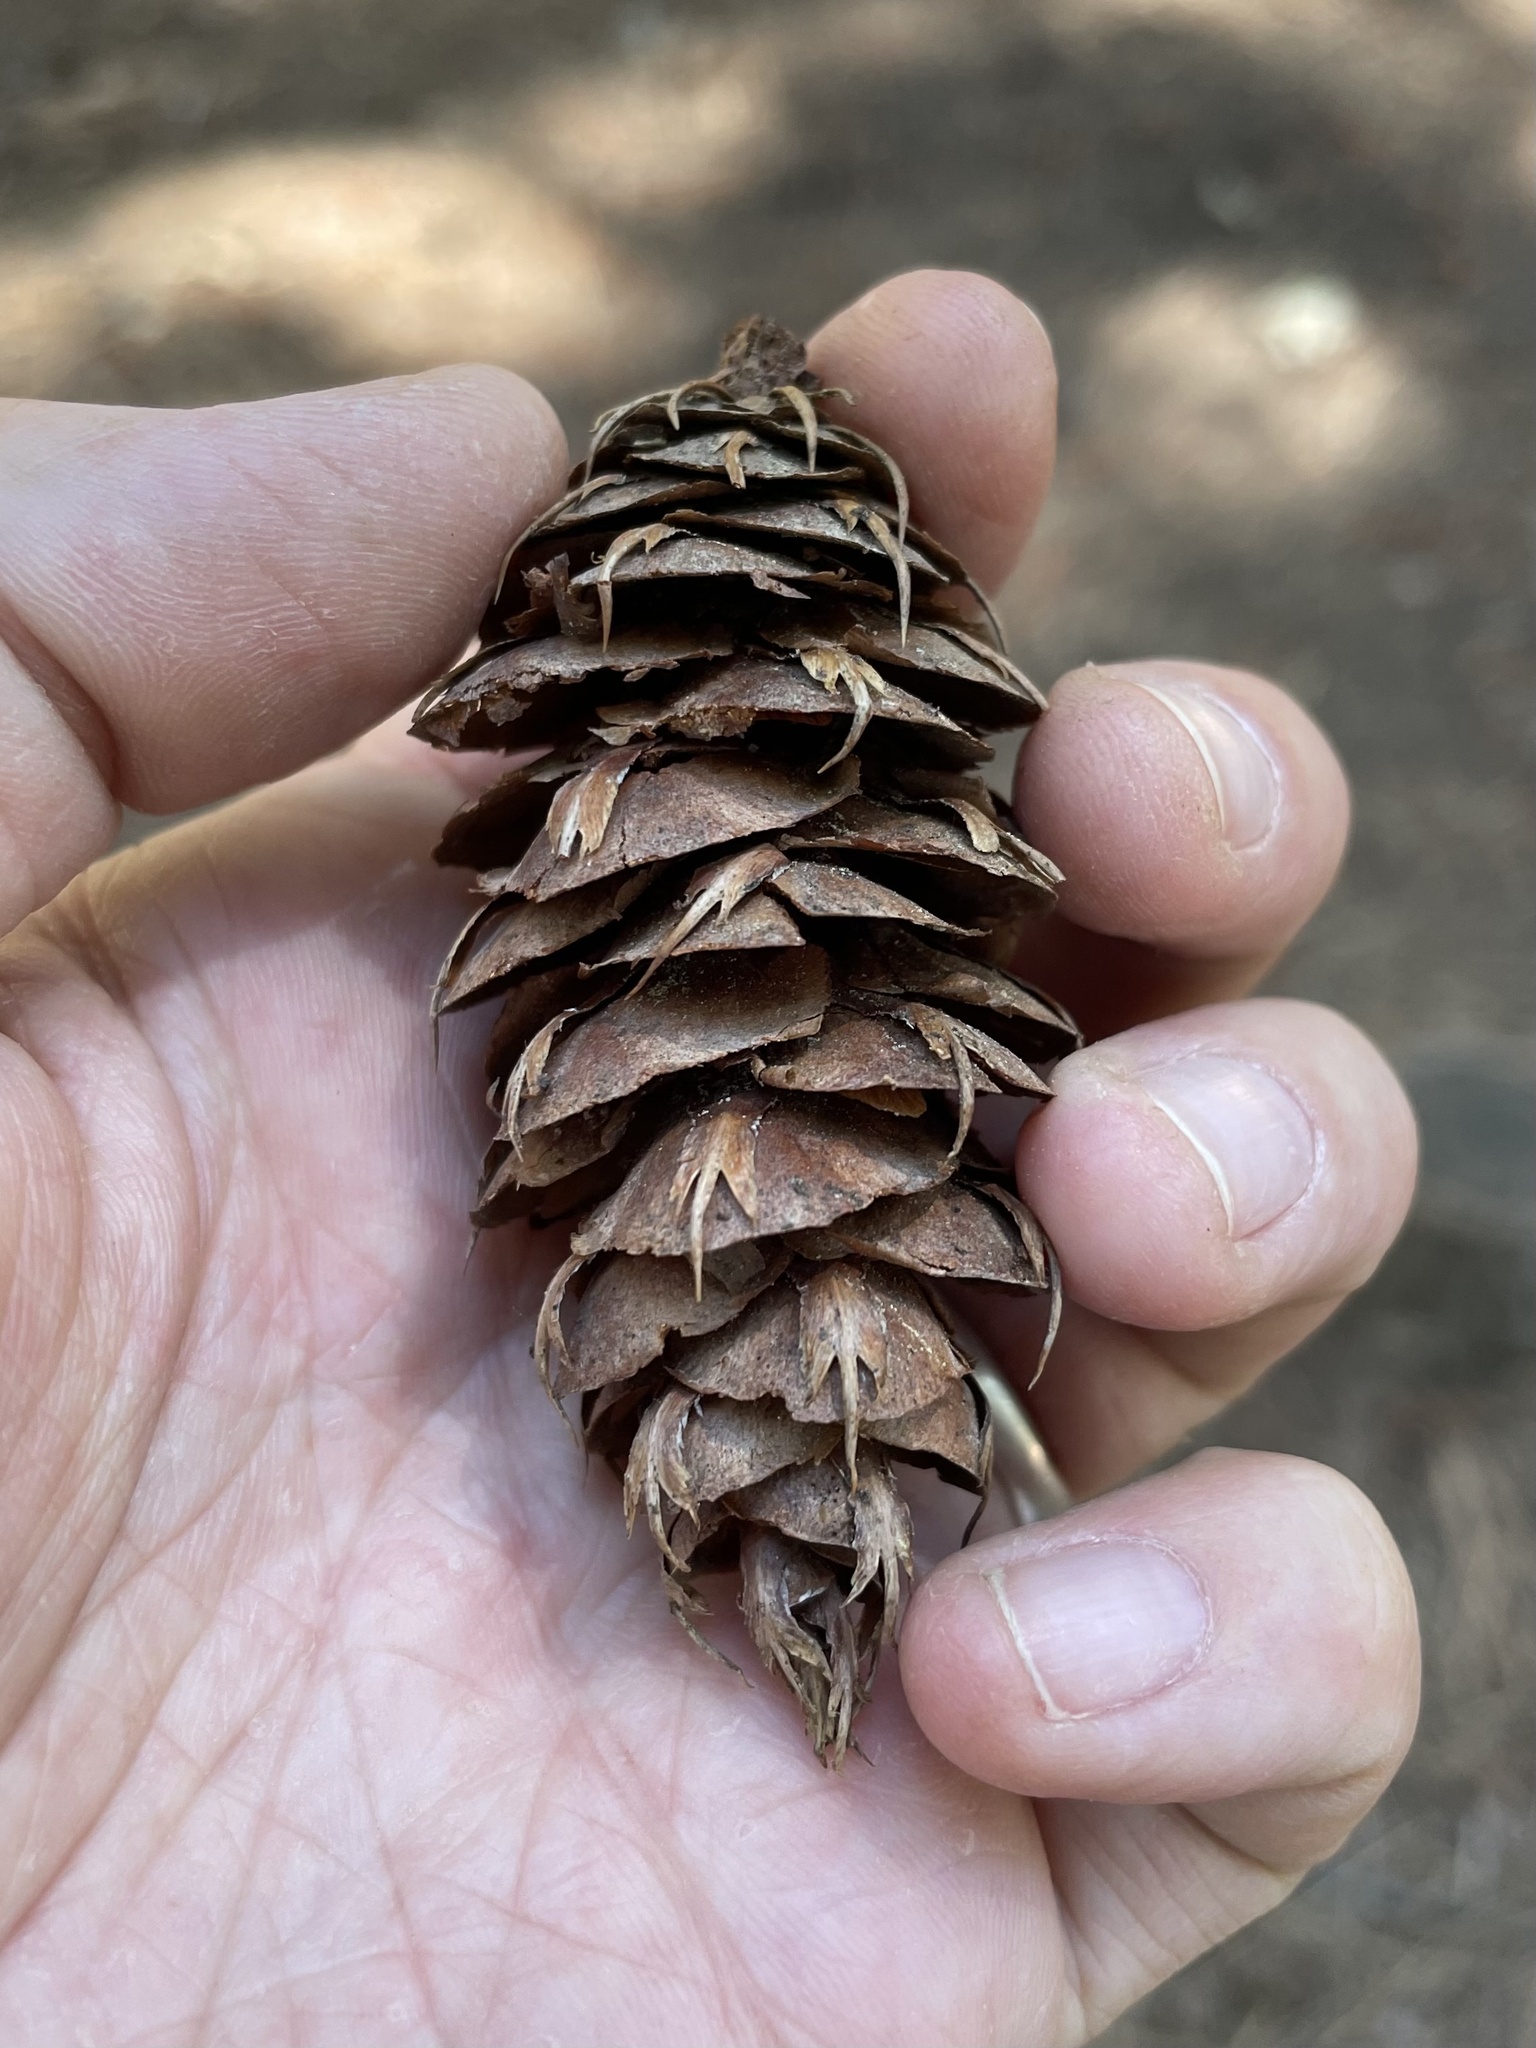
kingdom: Plantae
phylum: Tracheophyta
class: Pinopsida
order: Pinales
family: Pinaceae
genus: Pseudotsuga
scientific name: Pseudotsuga menziesii
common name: Douglas fir
